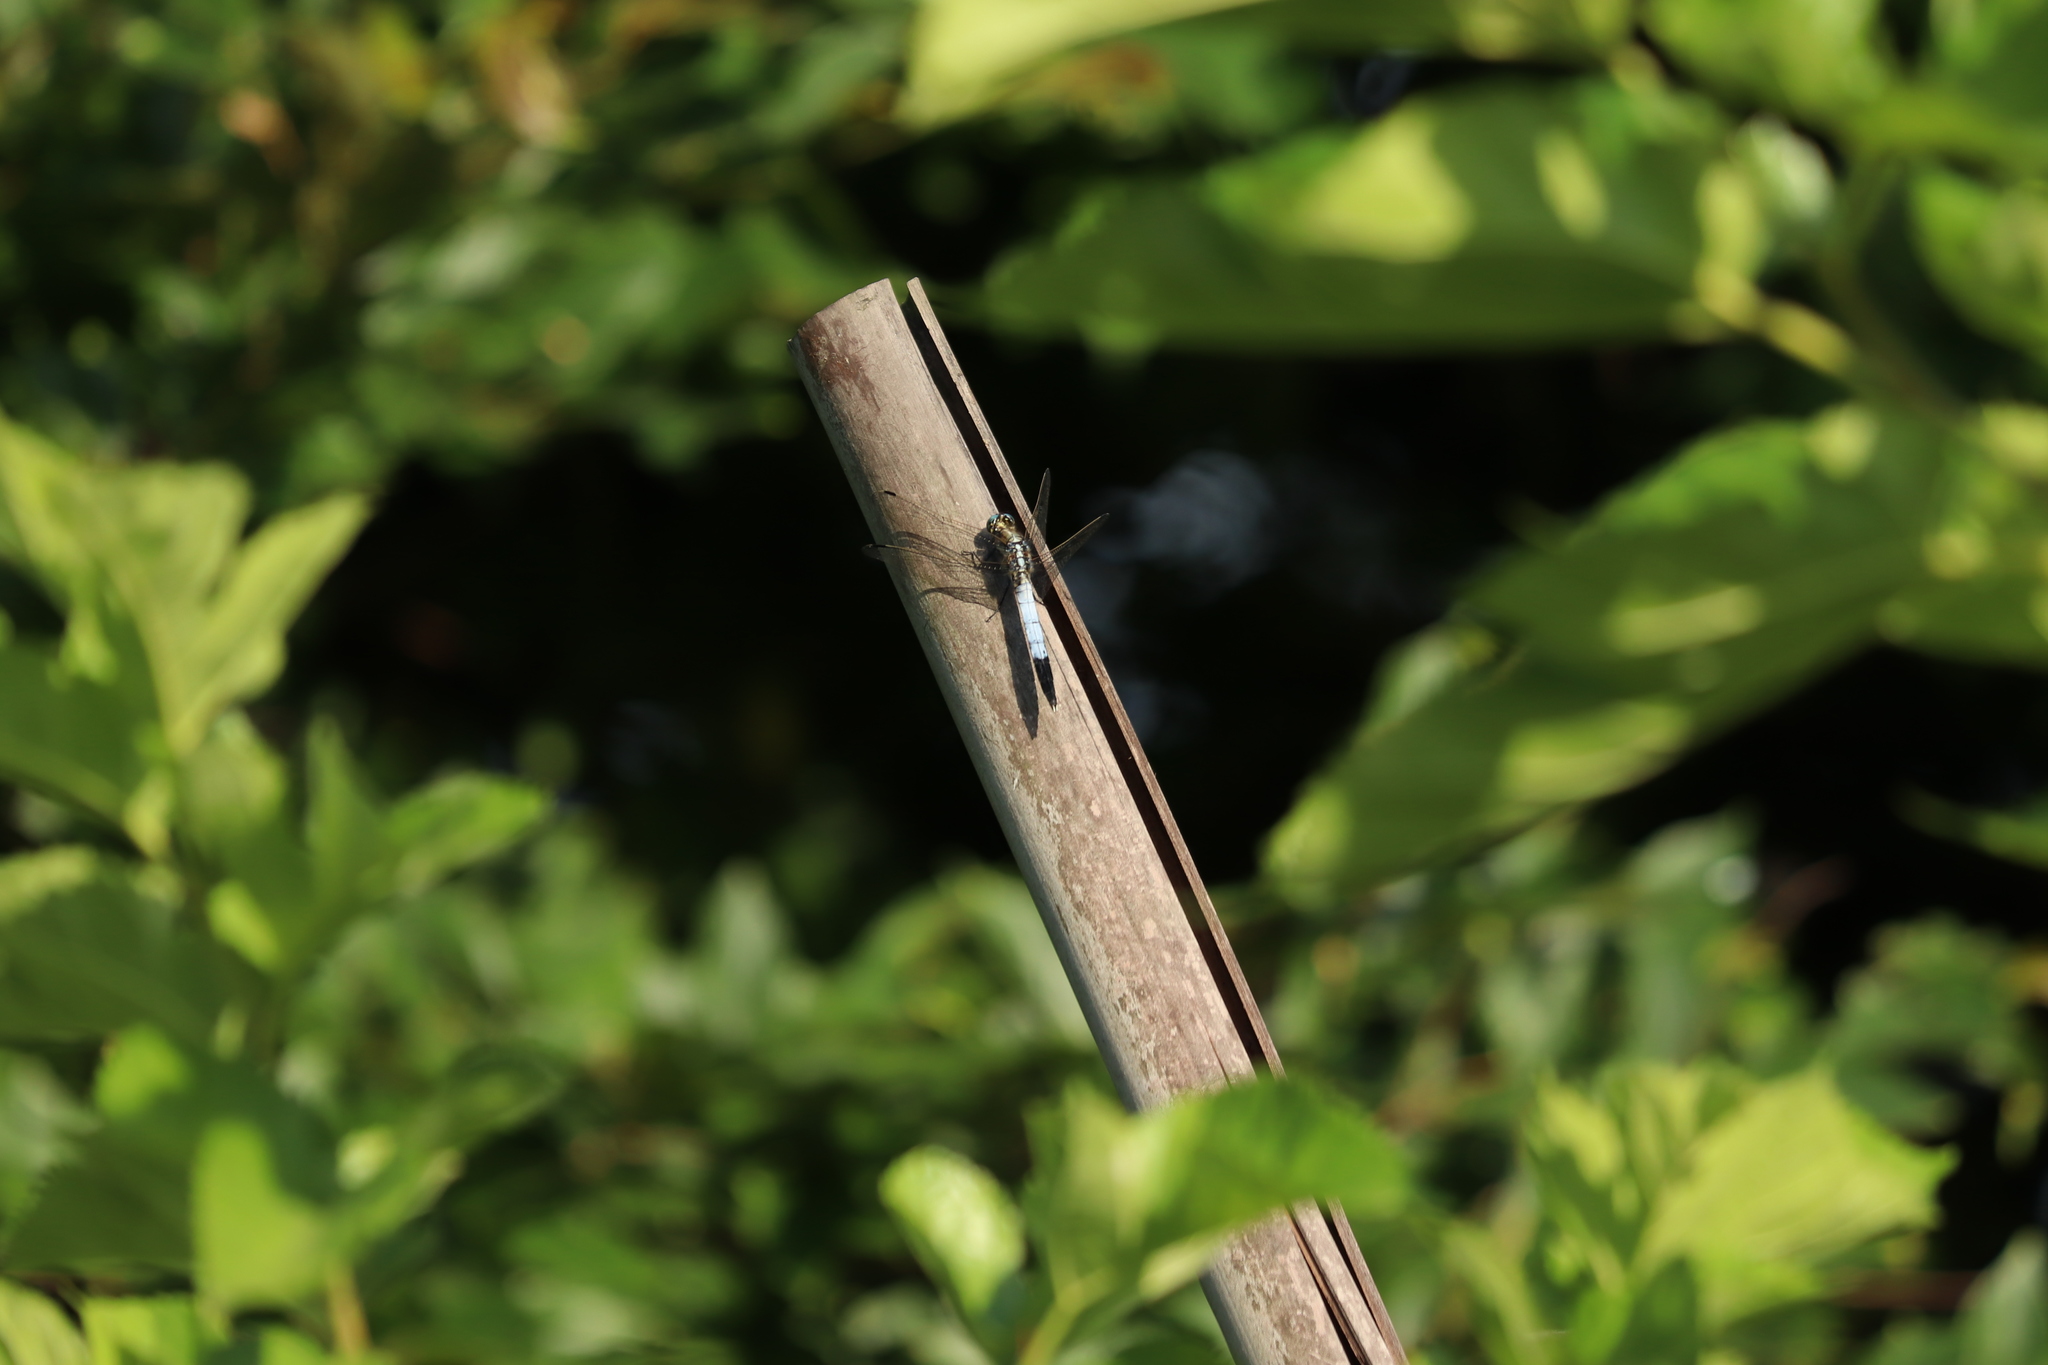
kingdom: Animalia
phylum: Arthropoda
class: Insecta
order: Odonata
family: Libellulidae
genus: Orthetrum
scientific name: Orthetrum albistylum
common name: White-tailed skimmer
